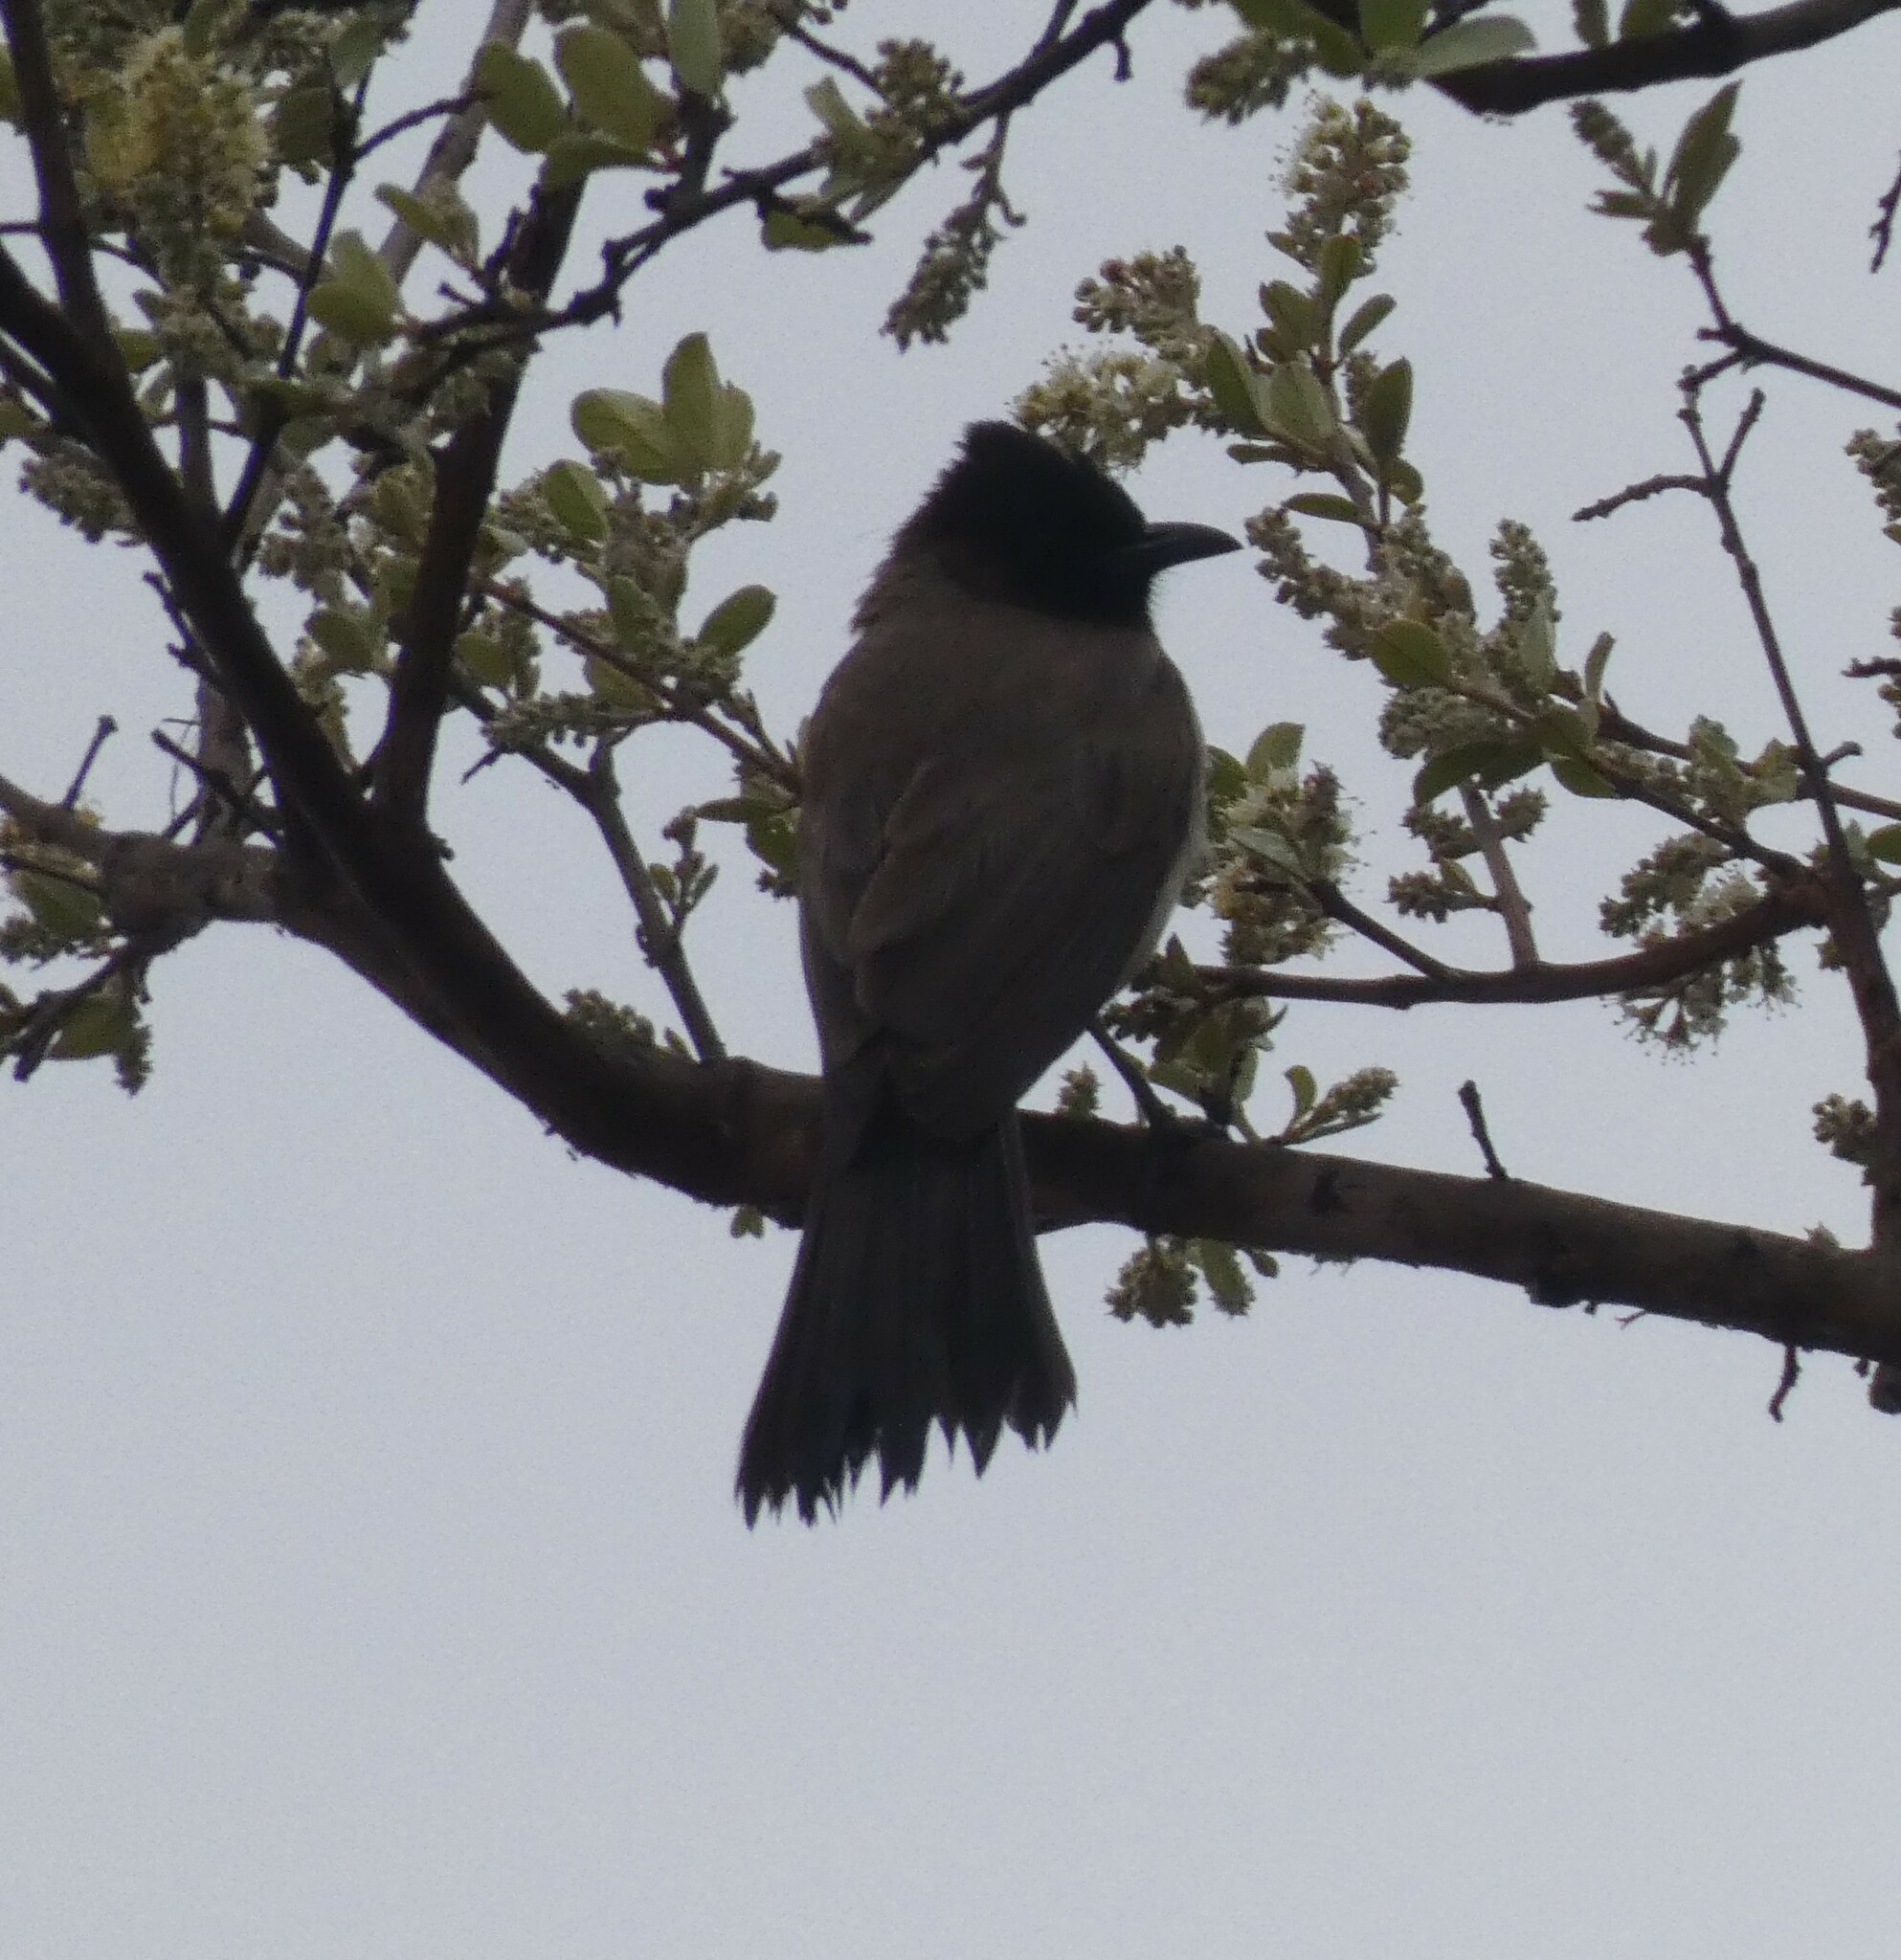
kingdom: Animalia
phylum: Chordata
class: Aves
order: Passeriformes
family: Pycnonotidae
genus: Pycnonotus
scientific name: Pycnonotus barbatus
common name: Common bulbul
